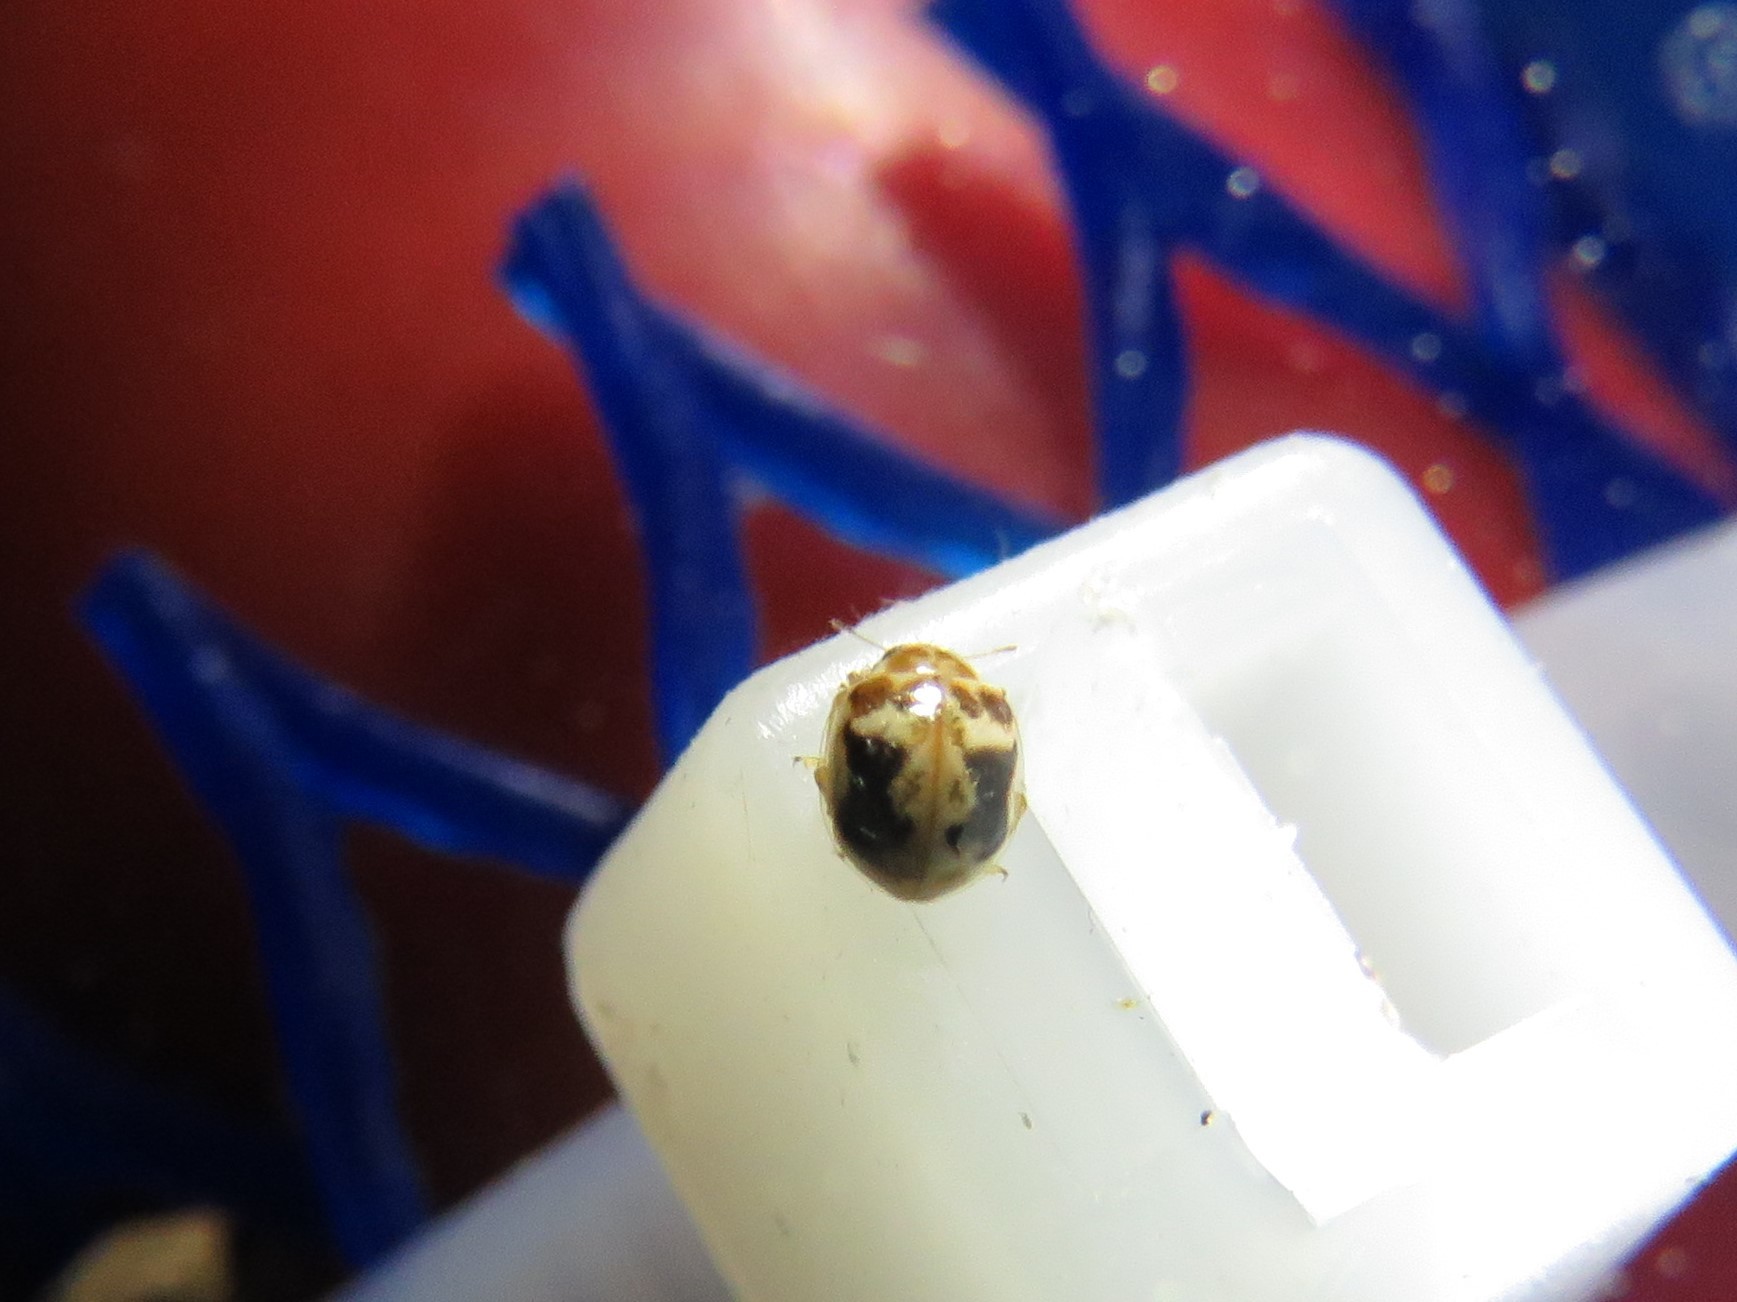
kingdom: Animalia
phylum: Arthropoda
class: Insecta
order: Coleoptera
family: Coccinellidae
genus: Psyllobora
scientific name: Psyllobora renifer
